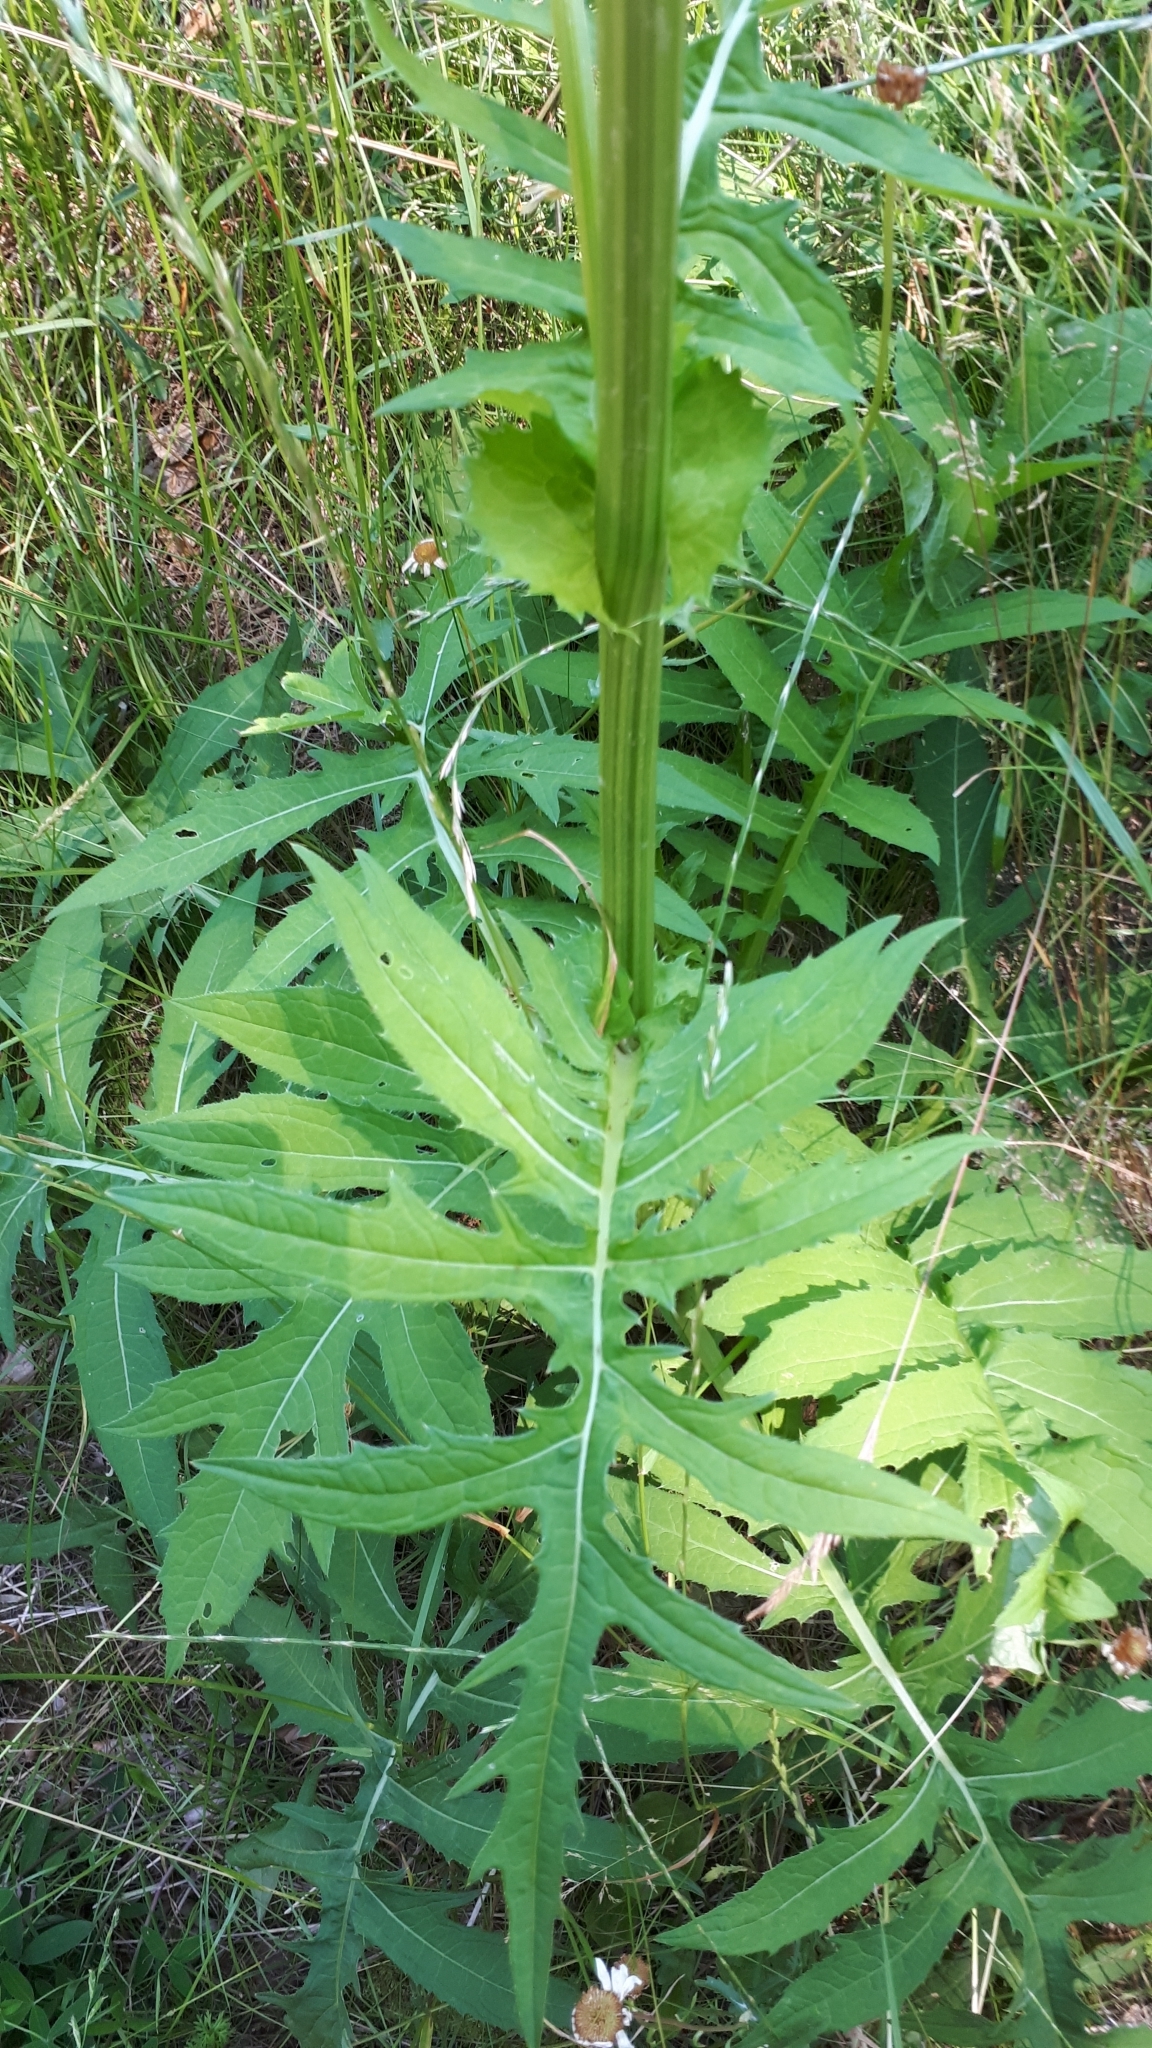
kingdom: Plantae
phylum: Tracheophyta
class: Magnoliopsida
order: Asterales
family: Asteraceae
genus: Cirsium
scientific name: Cirsium oleraceum
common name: Cabbage thistle
